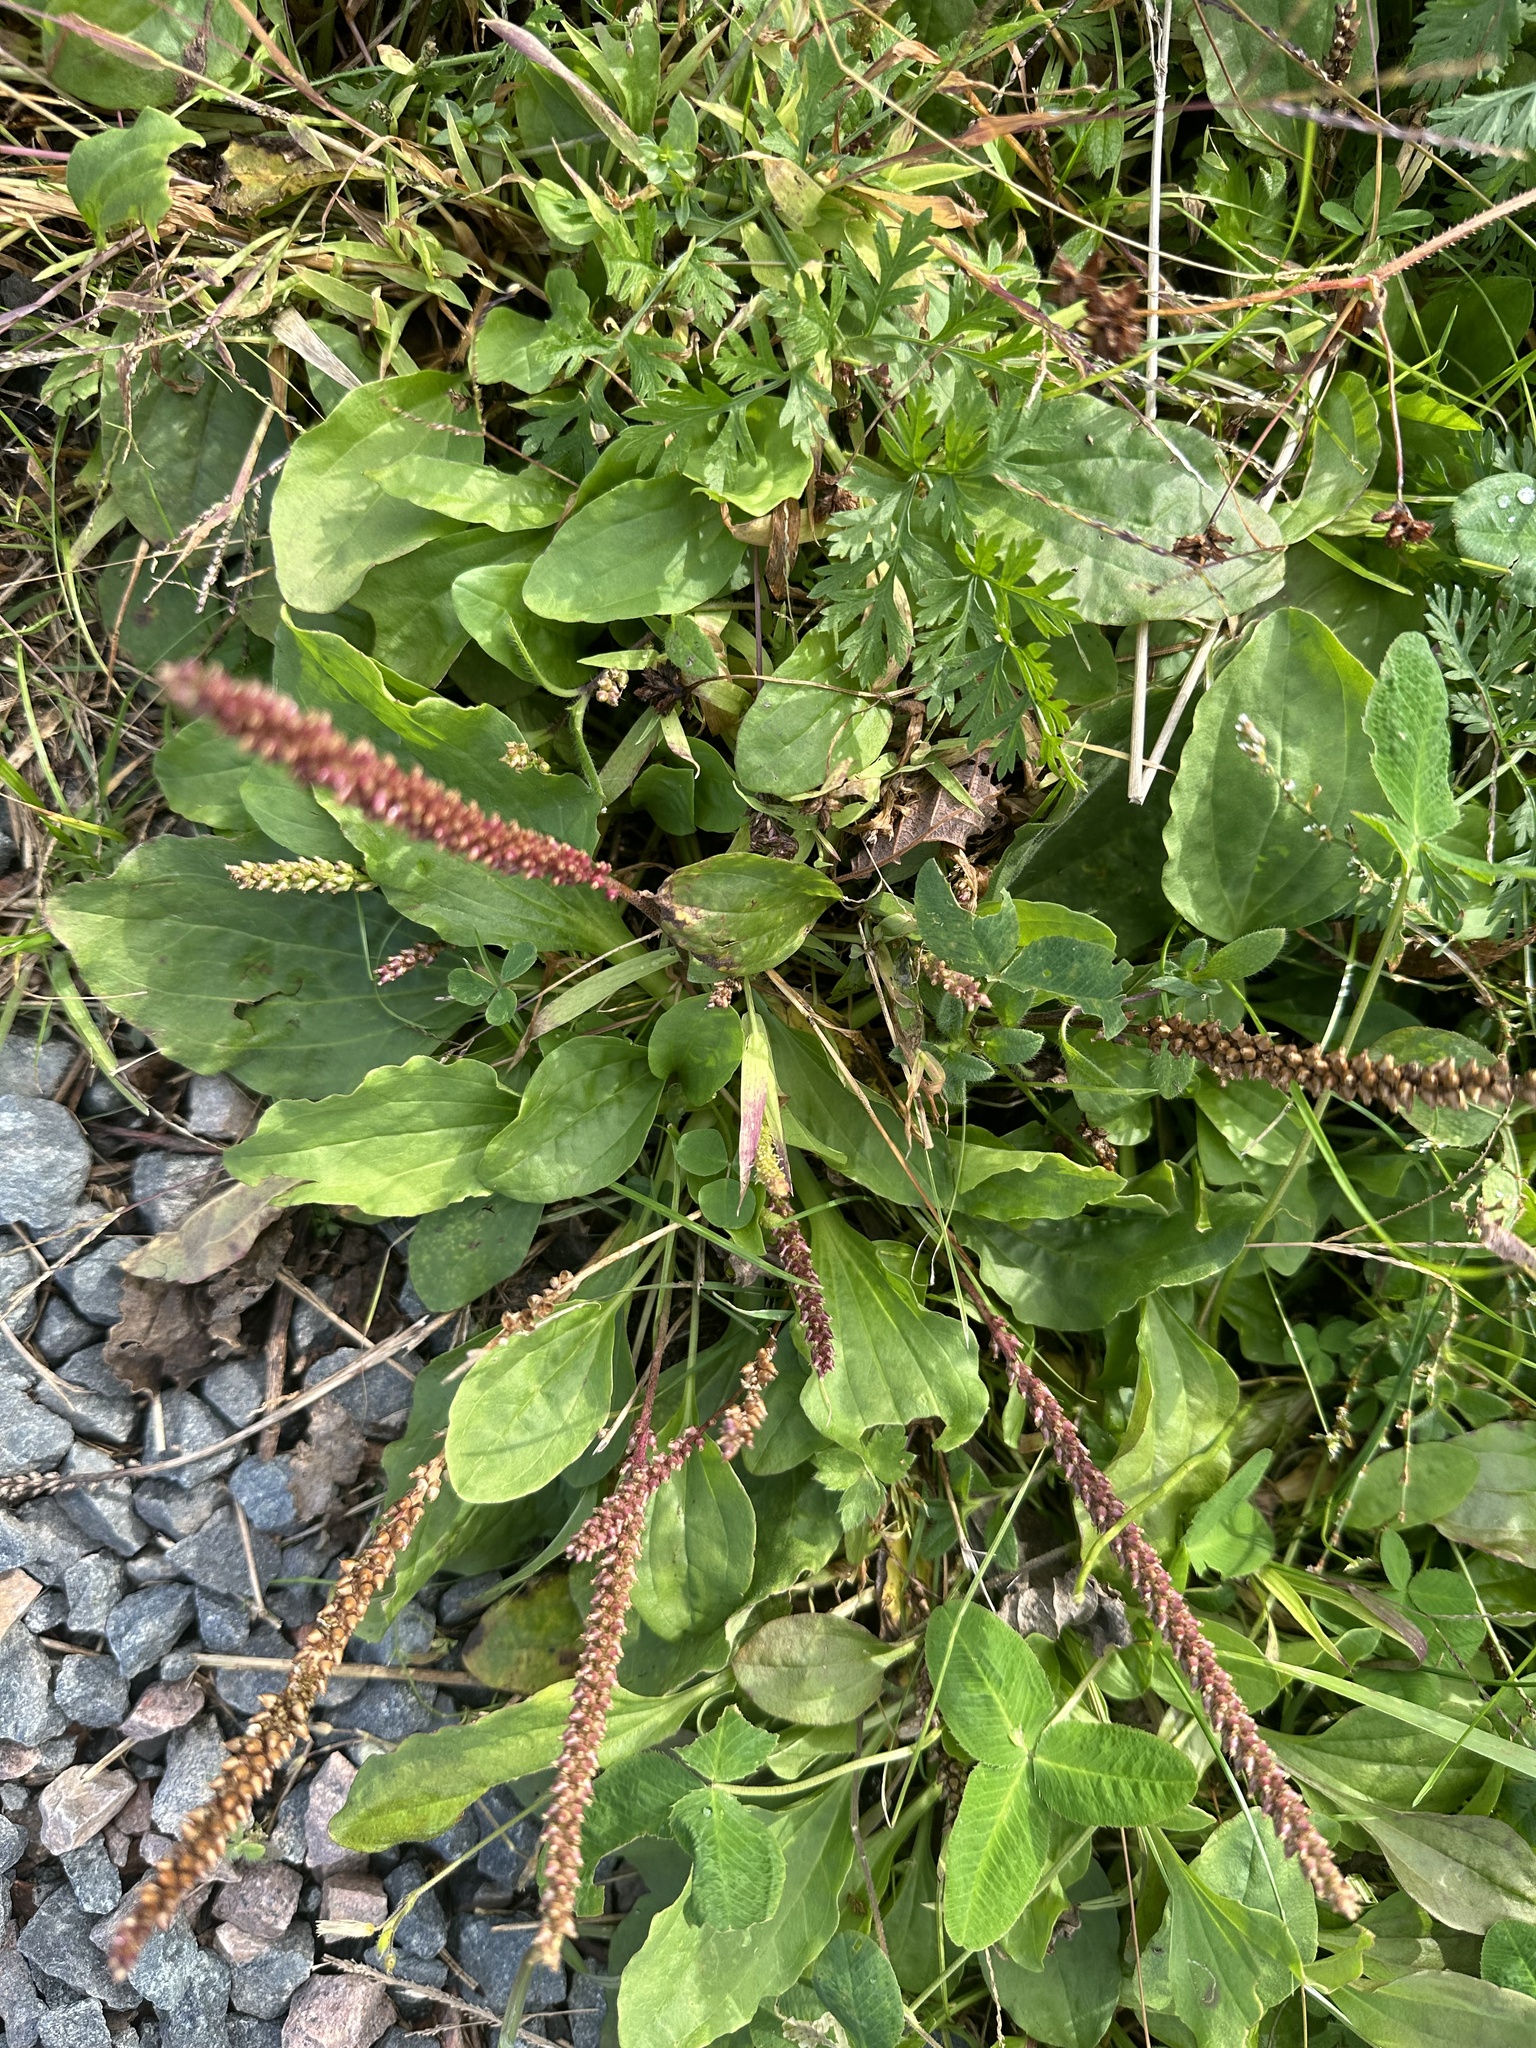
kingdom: Plantae
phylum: Tracheophyta
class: Magnoliopsida
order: Lamiales
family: Plantaginaceae
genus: Plantago
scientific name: Plantago major
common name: Common plantain
